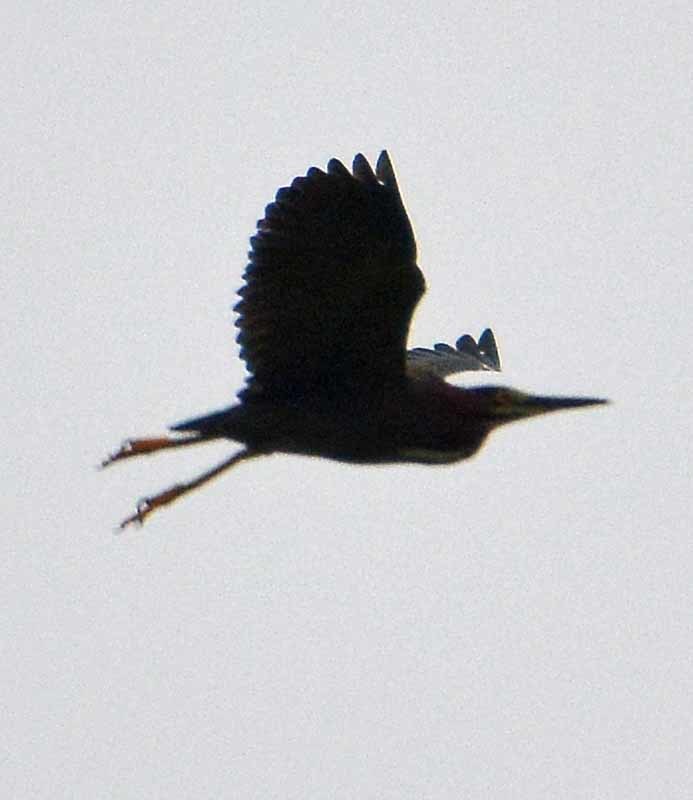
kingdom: Animalia
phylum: Chordata
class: Aves
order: Pelecaniformes
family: Ardeidae
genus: Butorides
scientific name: Butorides virescens
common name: Green heron
